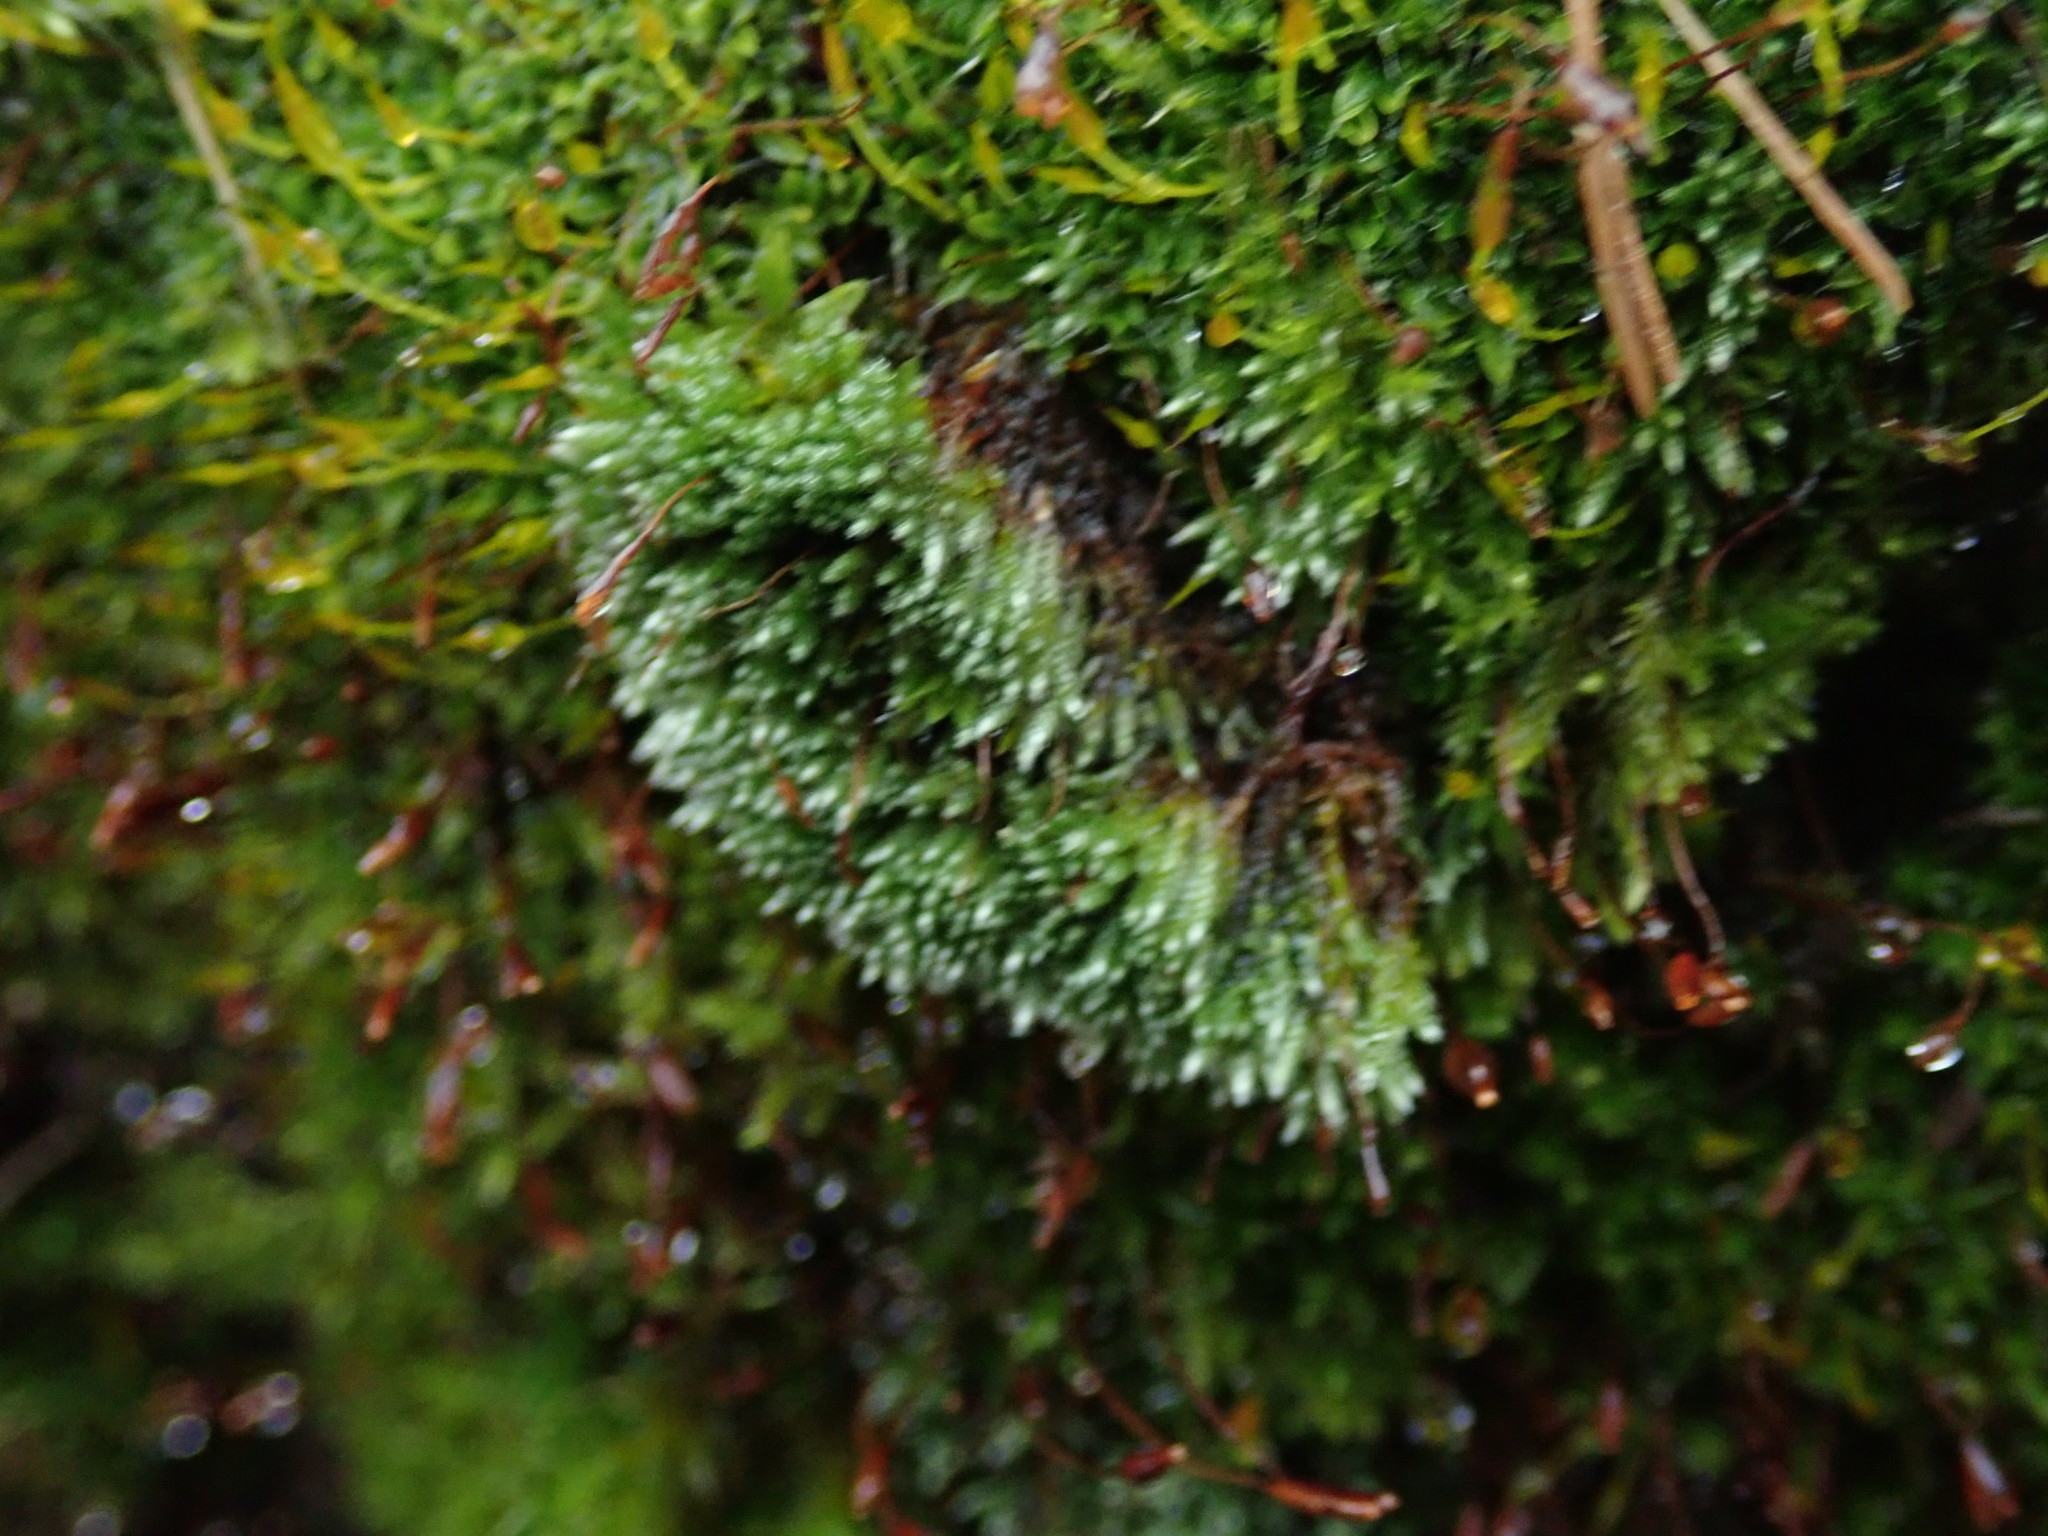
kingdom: Plantae
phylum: Bryophyta
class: Bryopsida
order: Bryales
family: Bryaceae
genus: Bryum
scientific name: Bryum argenteum
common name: Silver-moss
